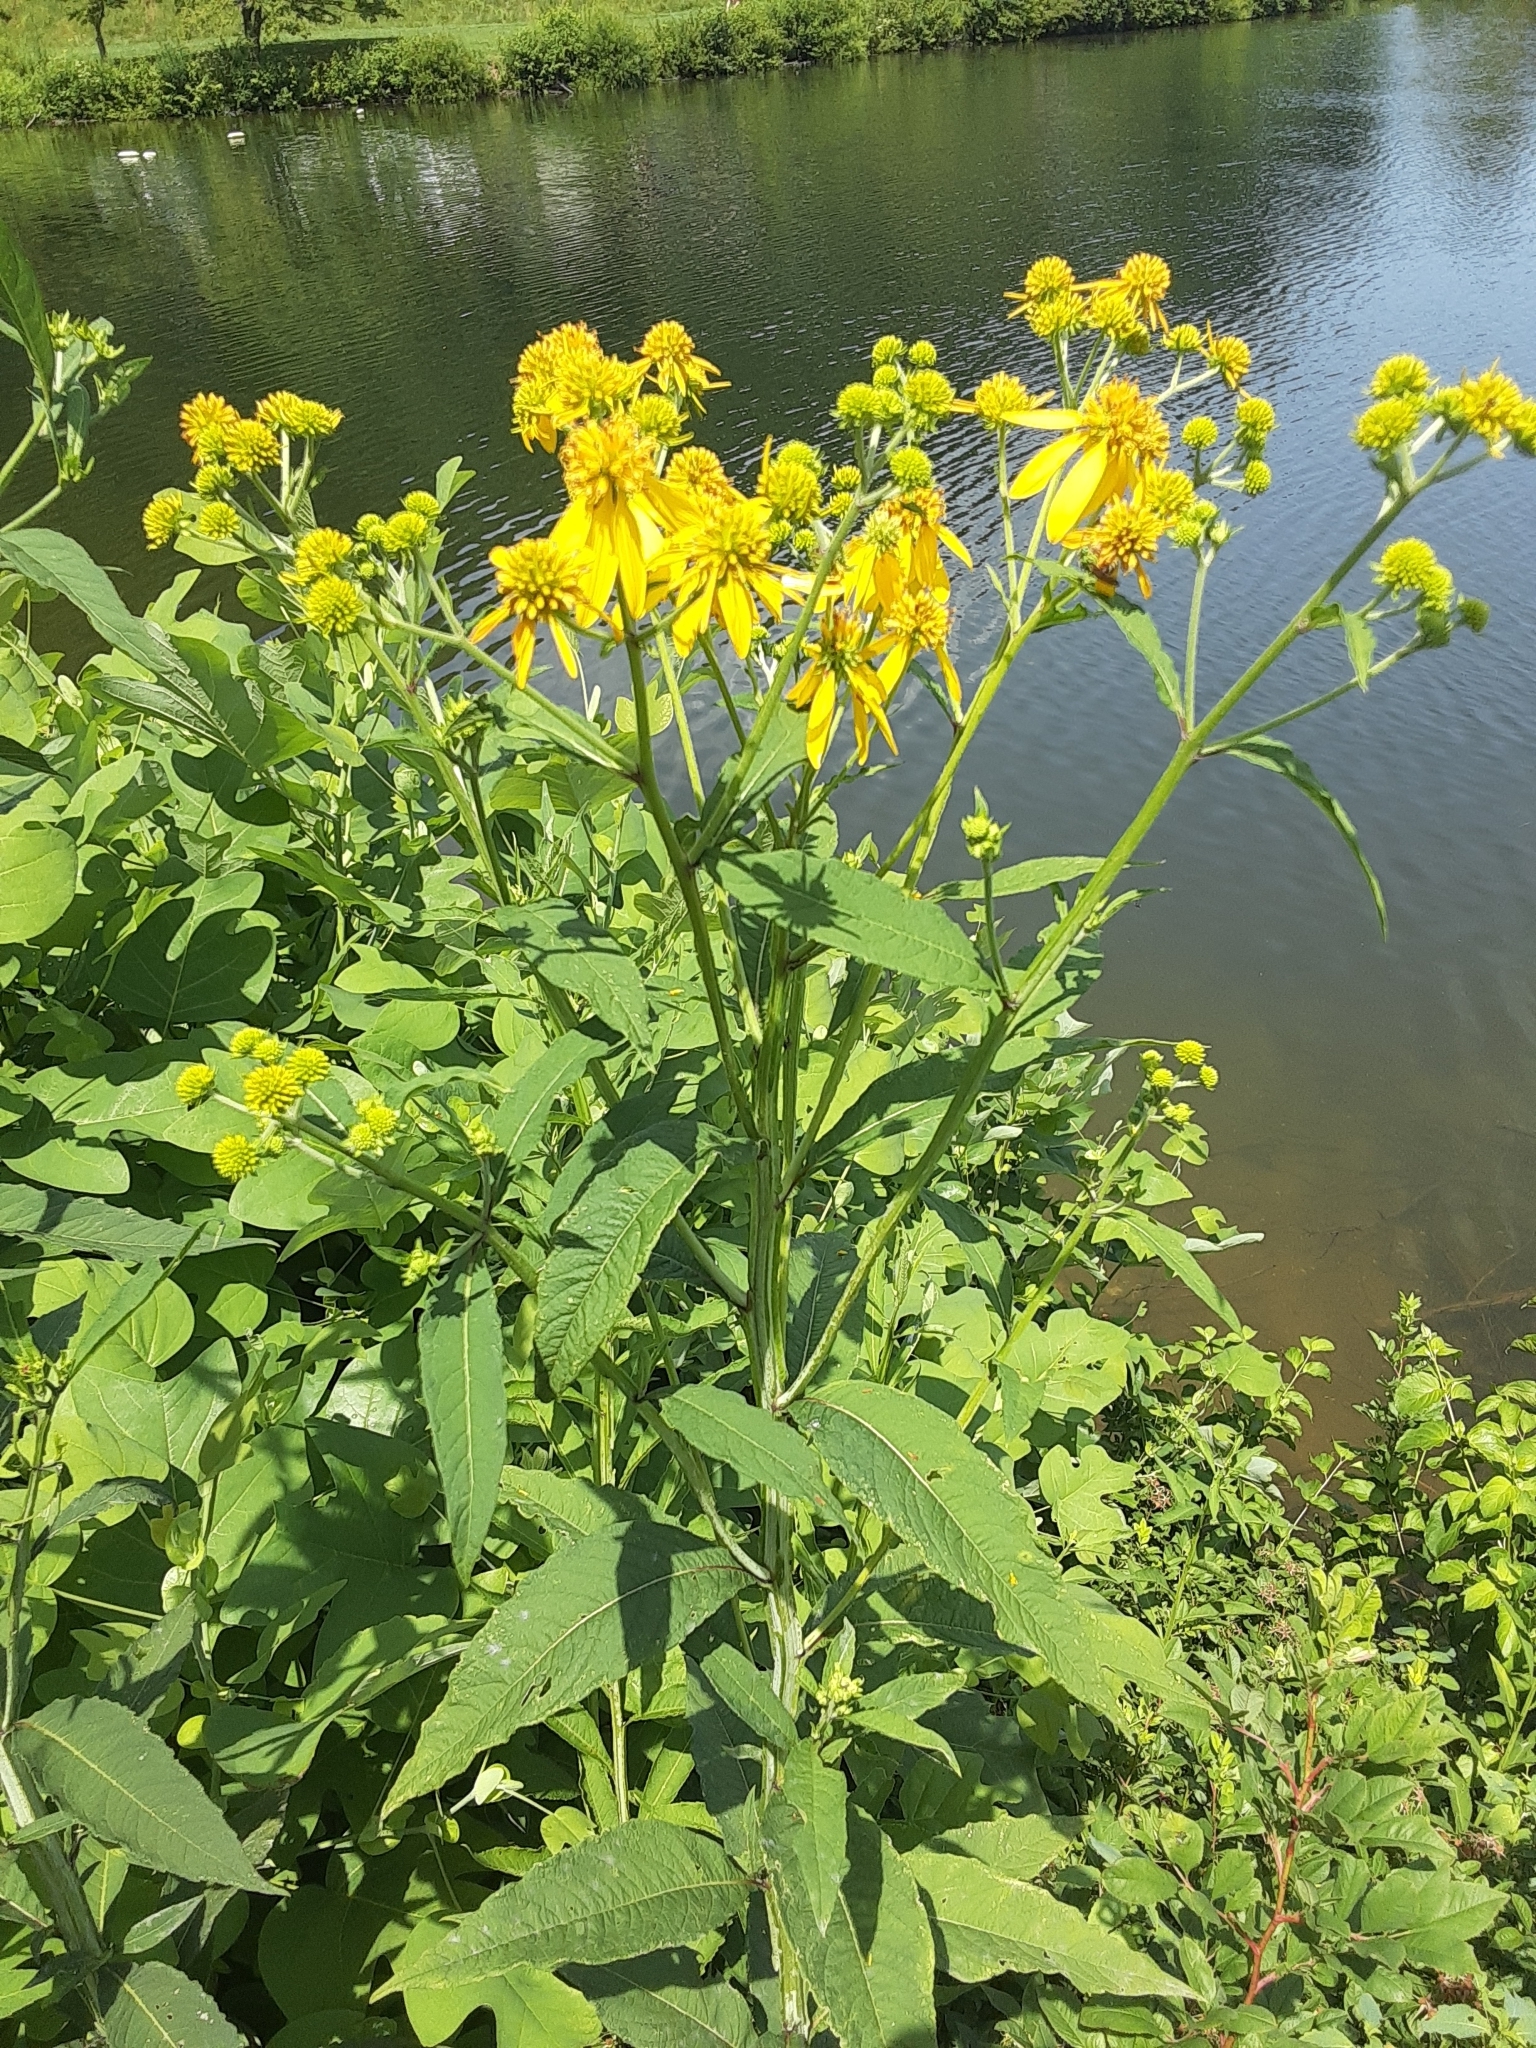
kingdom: Plantae
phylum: Tracheophyta
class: Magnoliopsida
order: Asterales
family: Asteraceae
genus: Verbesina
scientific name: Verbesina alternifolia
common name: Wingstem
